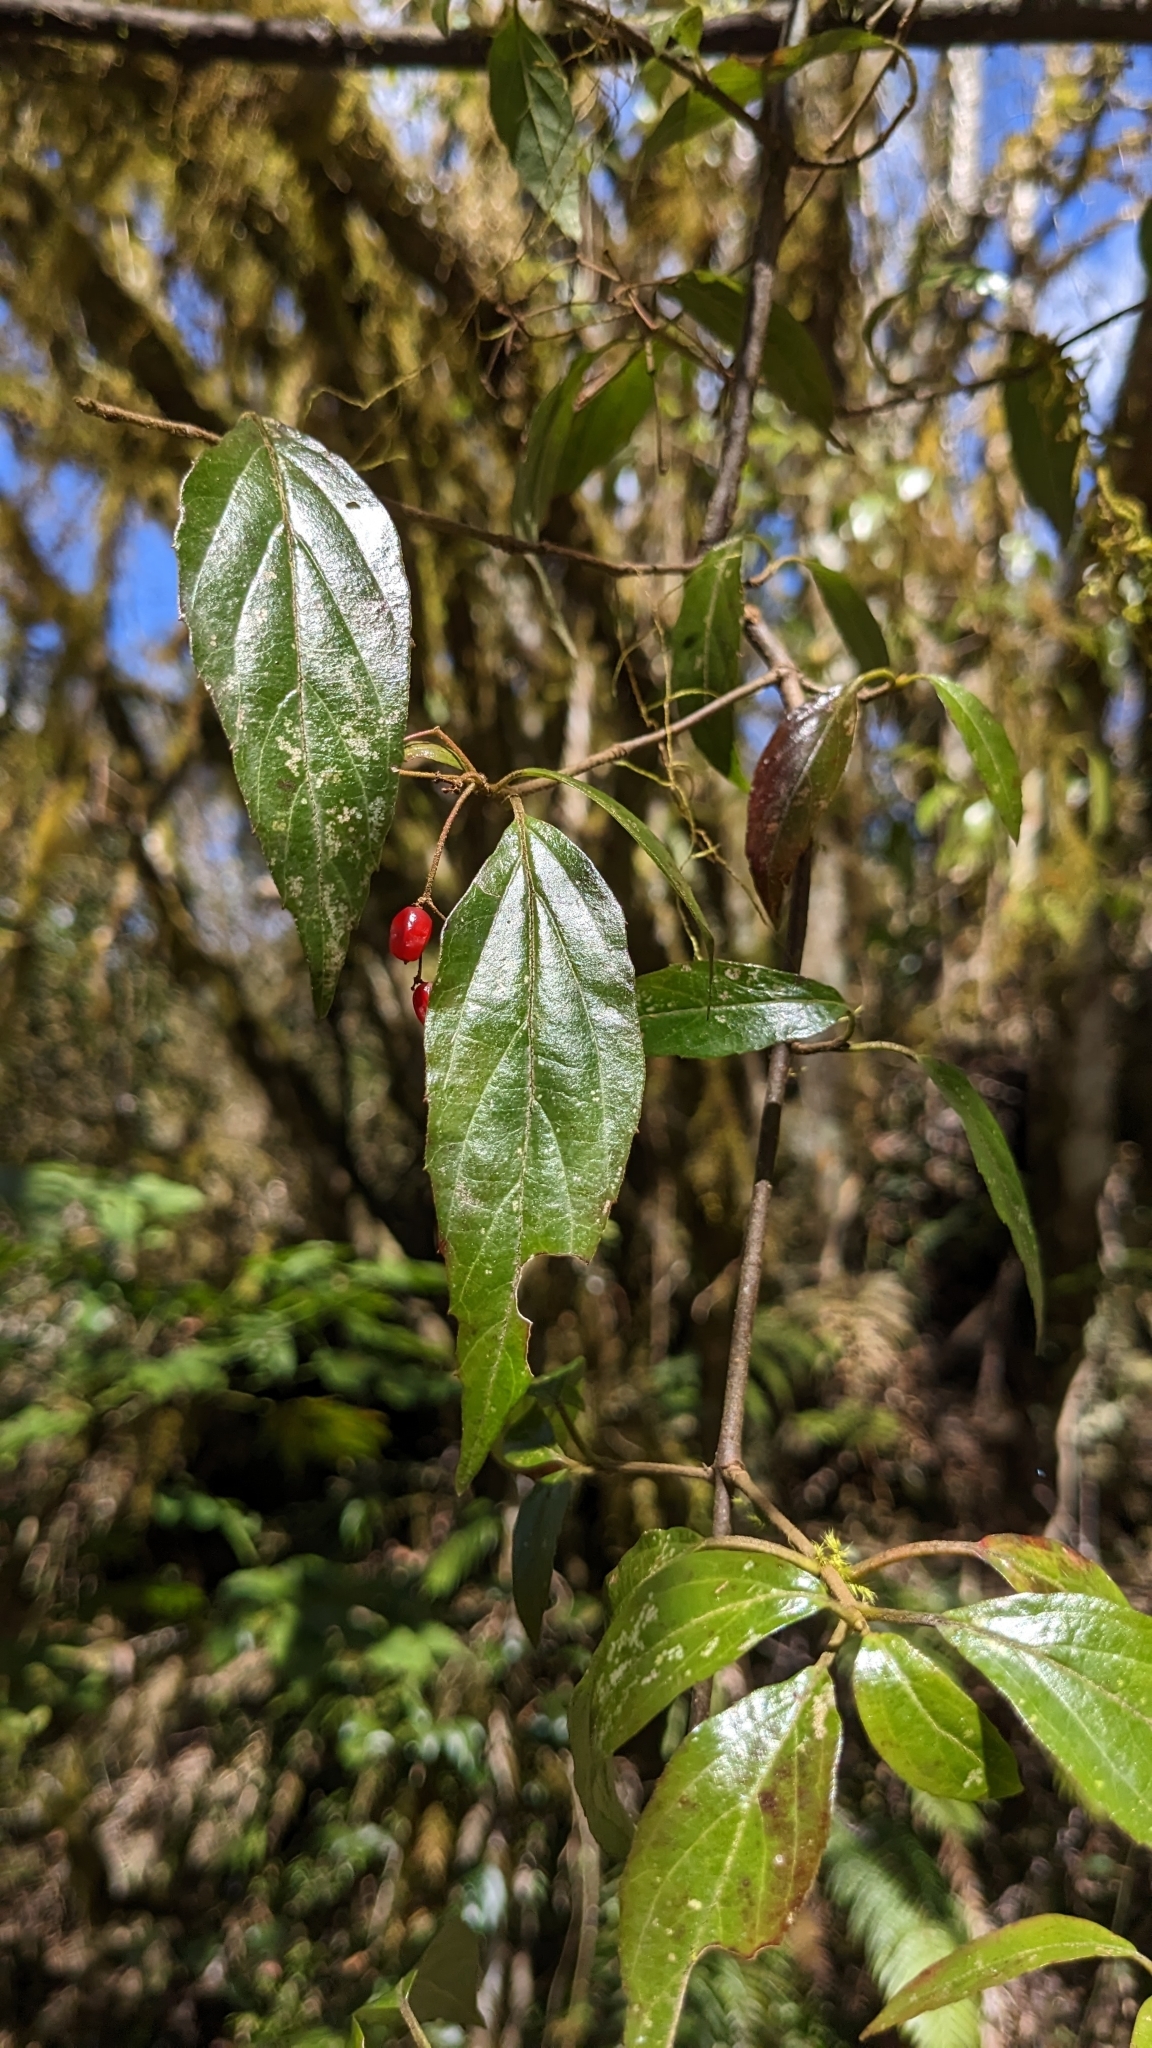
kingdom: Plantae
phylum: Tracheophyta
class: Magnoliopsida
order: Dipsacales
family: Viburnaceae
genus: Viburnum
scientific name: Viburnum foetidum
